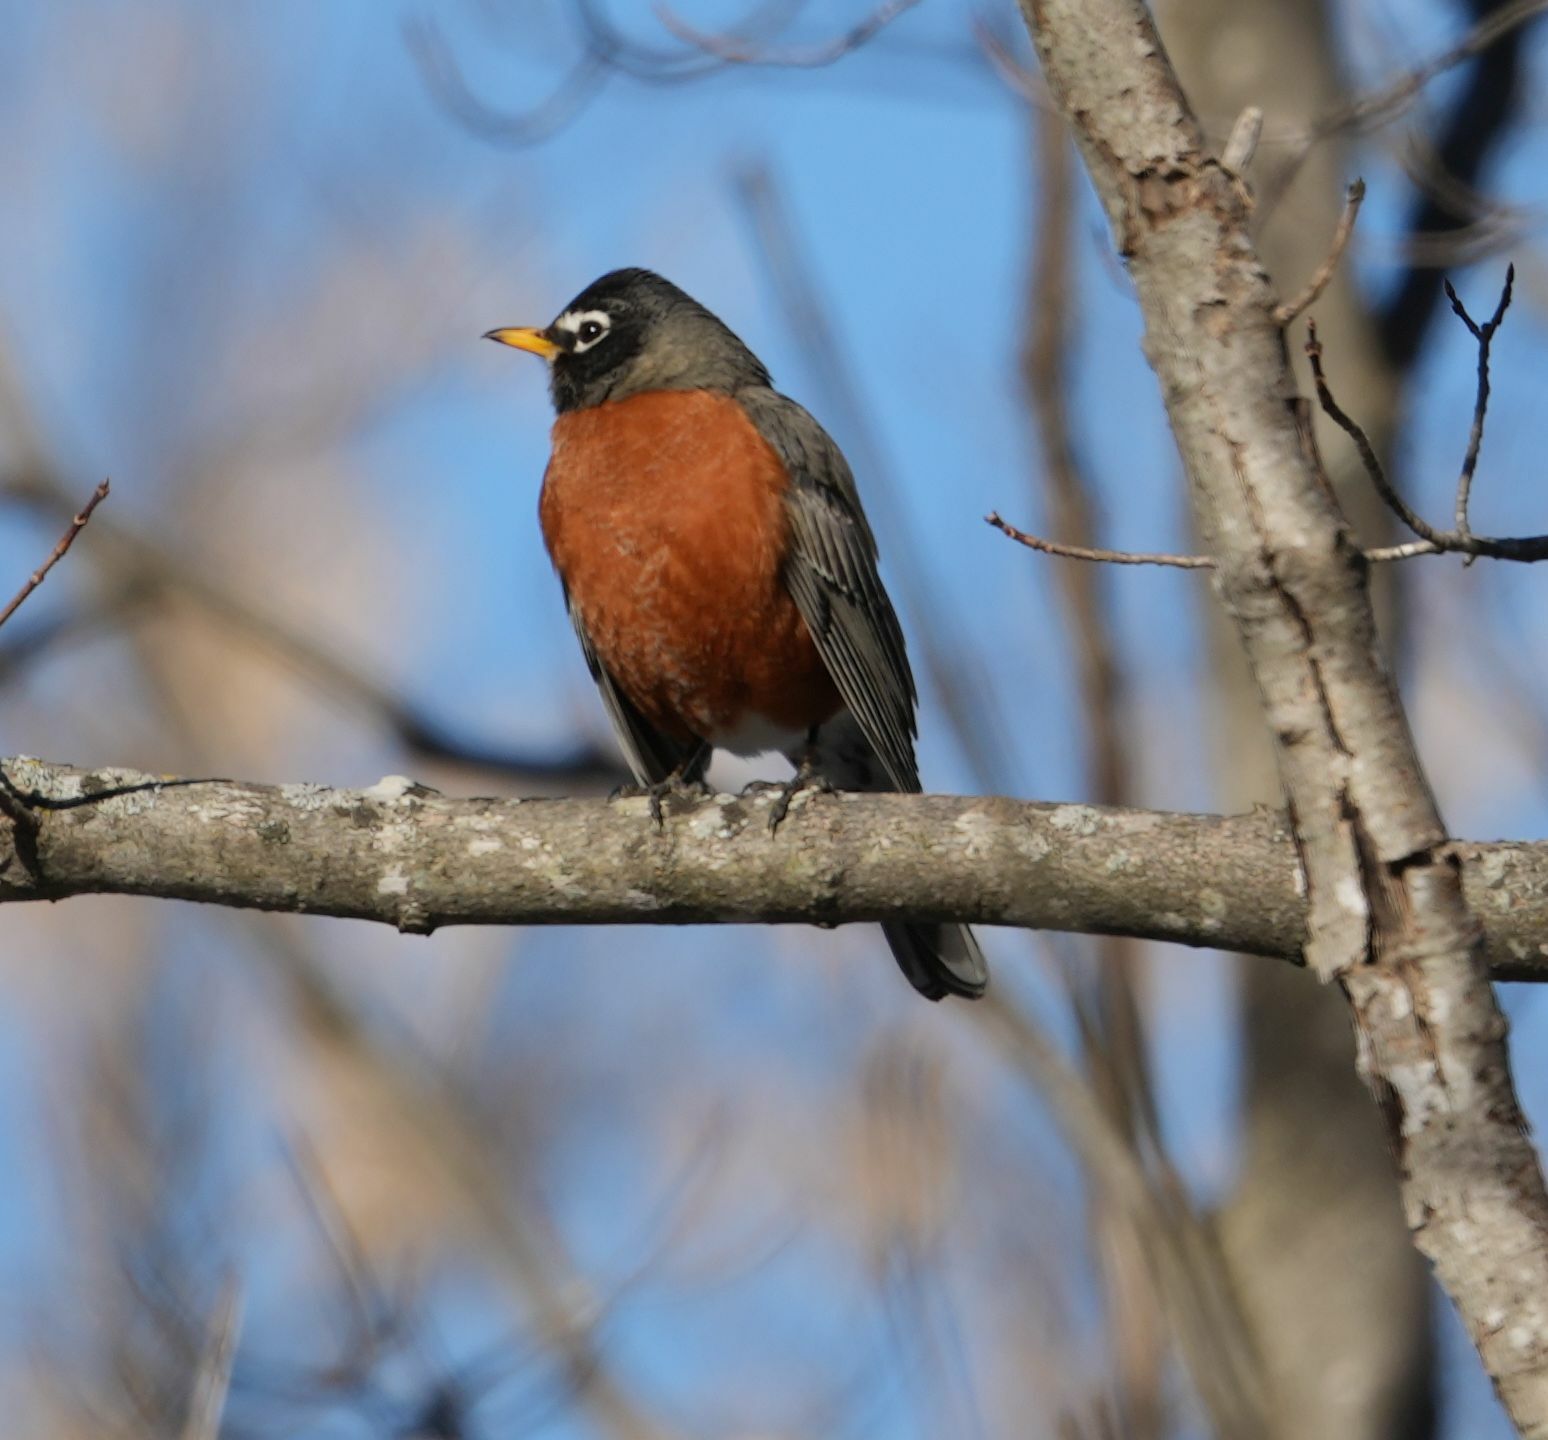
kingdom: Animalia
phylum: Chordata
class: Aves
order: Passeriformes
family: Turdidae
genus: Turdus
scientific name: Turdus migratorius
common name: American robin
